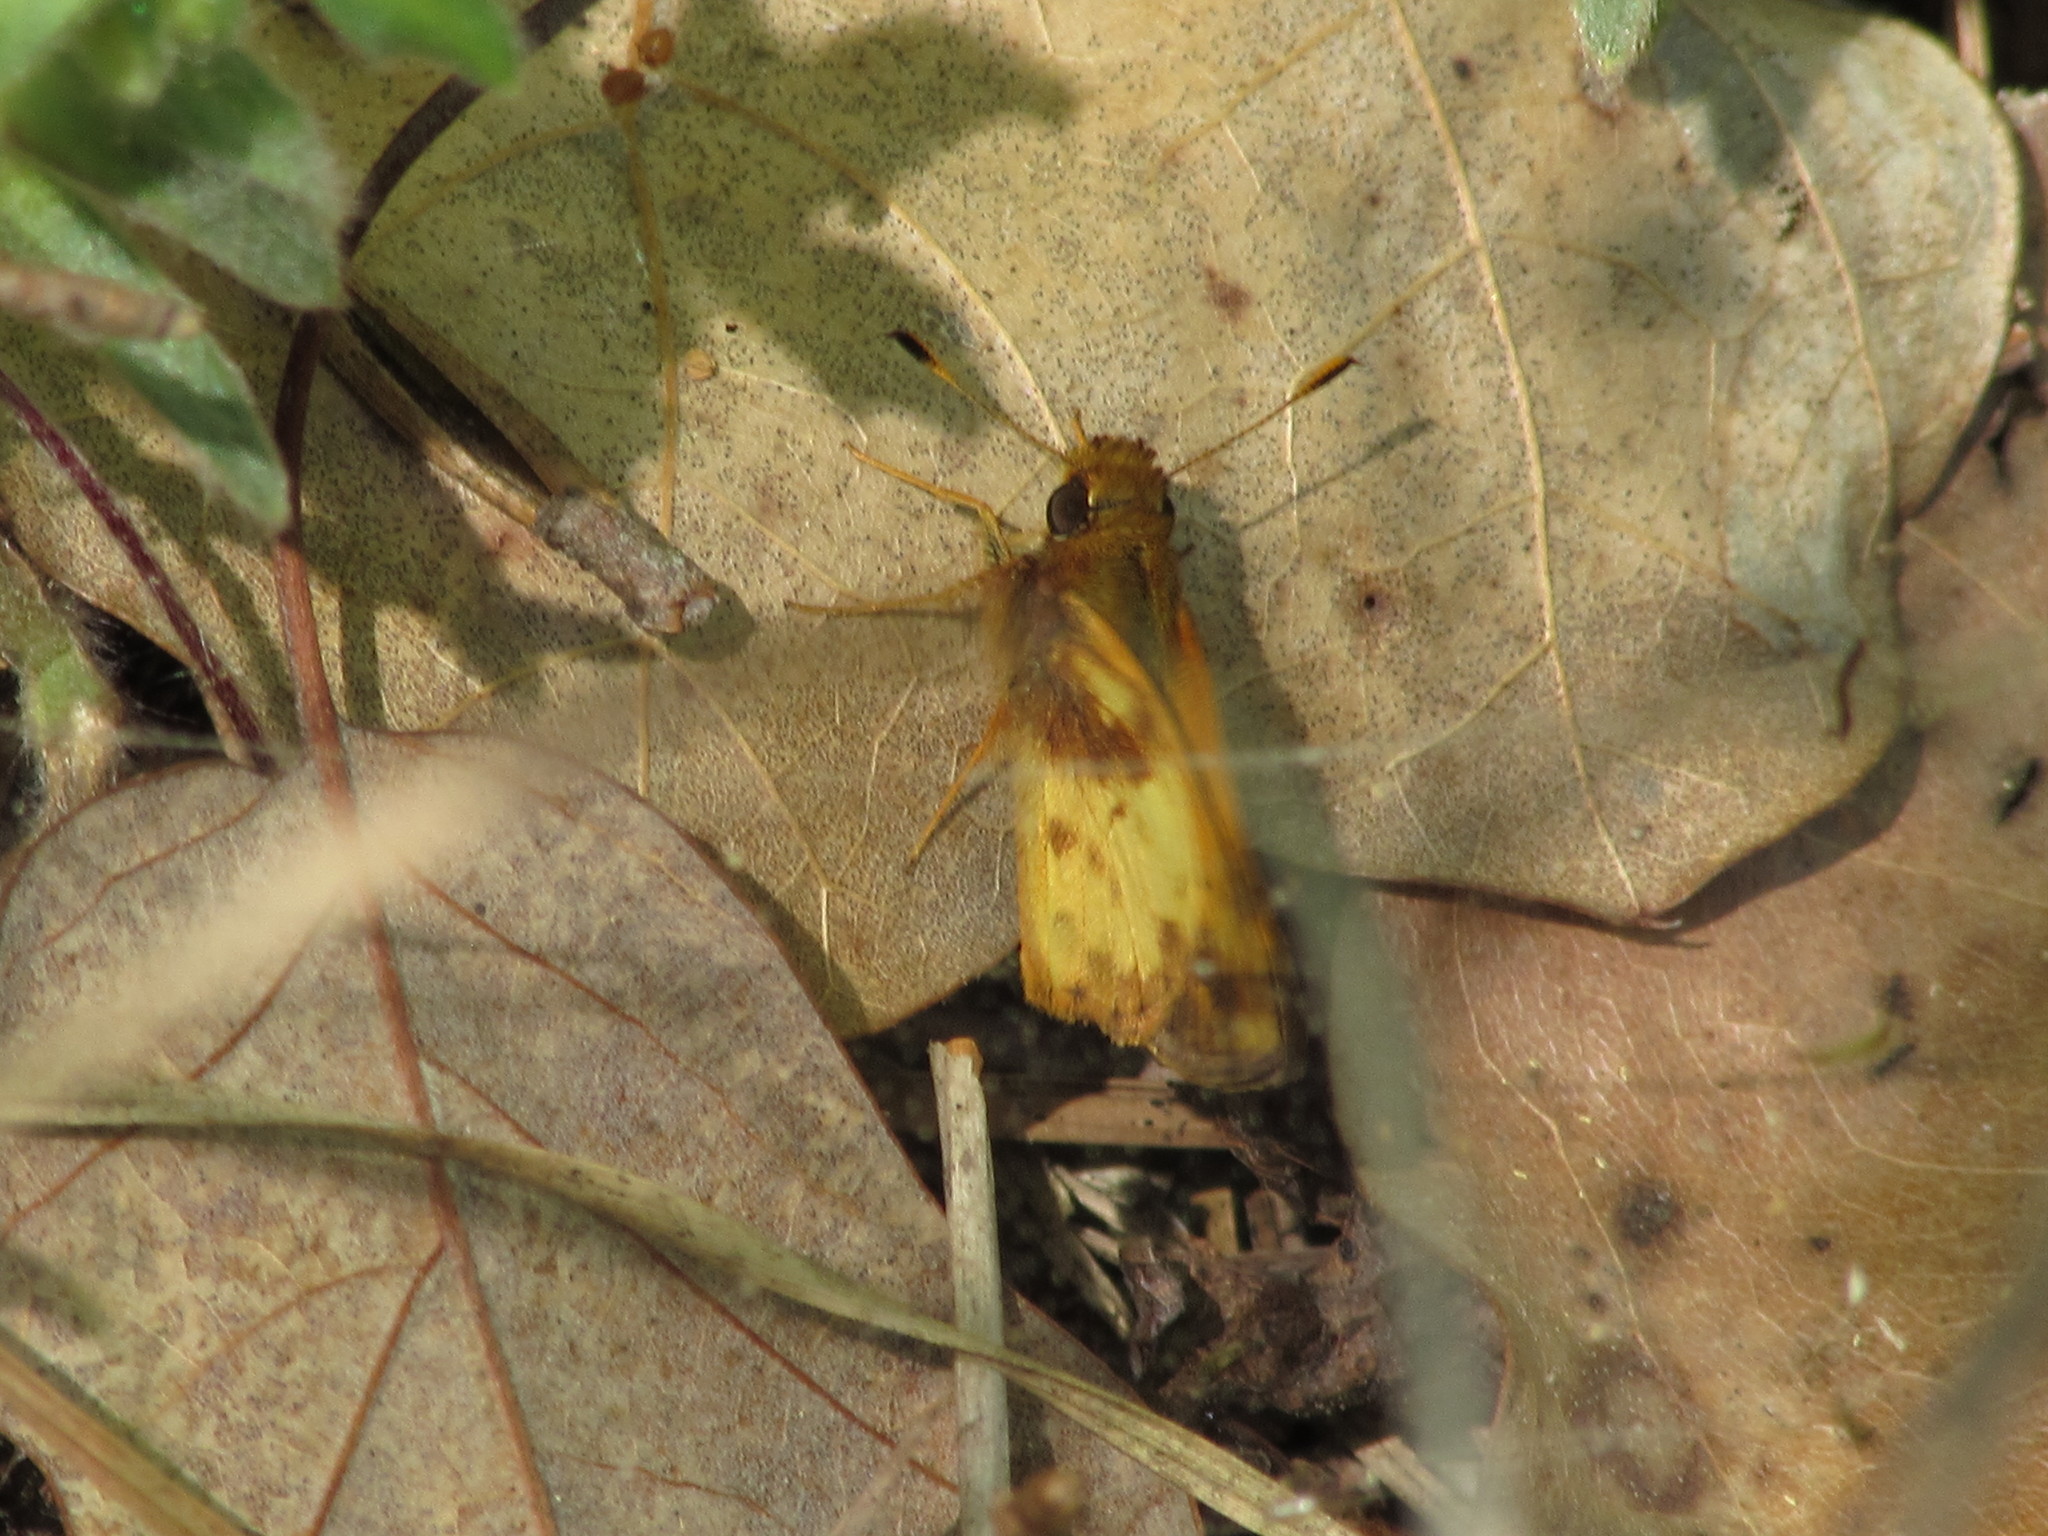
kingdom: Animalia
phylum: Arthropoda
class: Insecta
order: Lepidoptera
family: Hesperiidae
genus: Lon
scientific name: Lon zabulon
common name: Zabulon skipper
